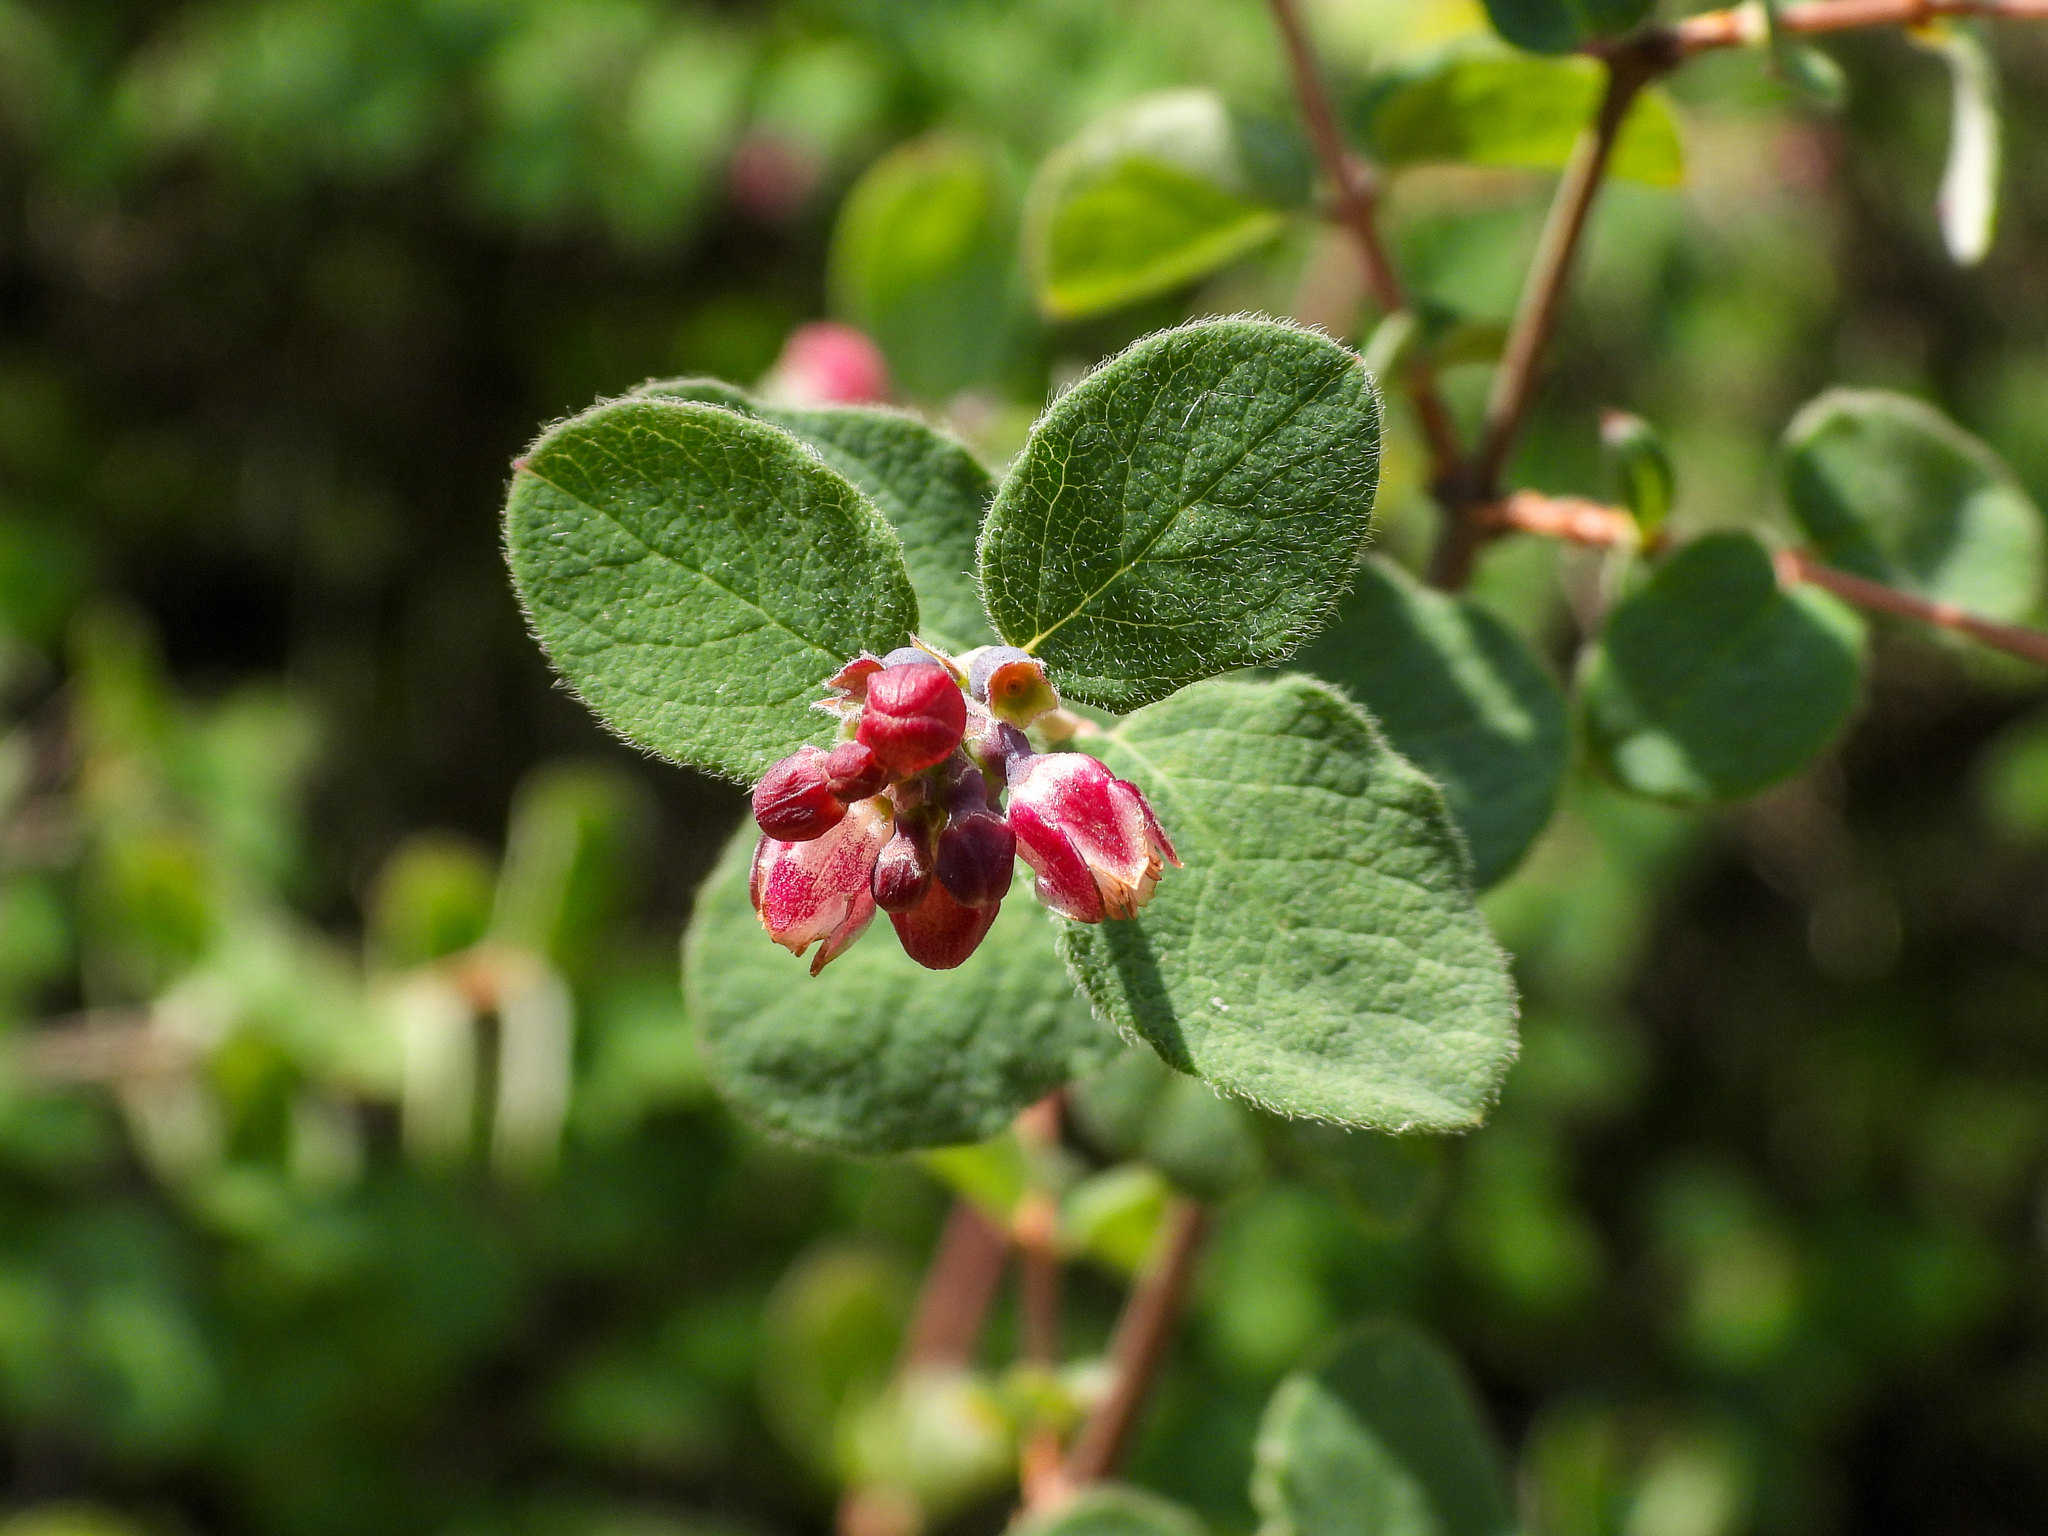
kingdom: Plantae
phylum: Tracheophyta
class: Magnoliopsida
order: Dipsacales
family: Caprifoliaceae
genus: Symphoricarpos
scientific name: Symphoricarpos mollis
